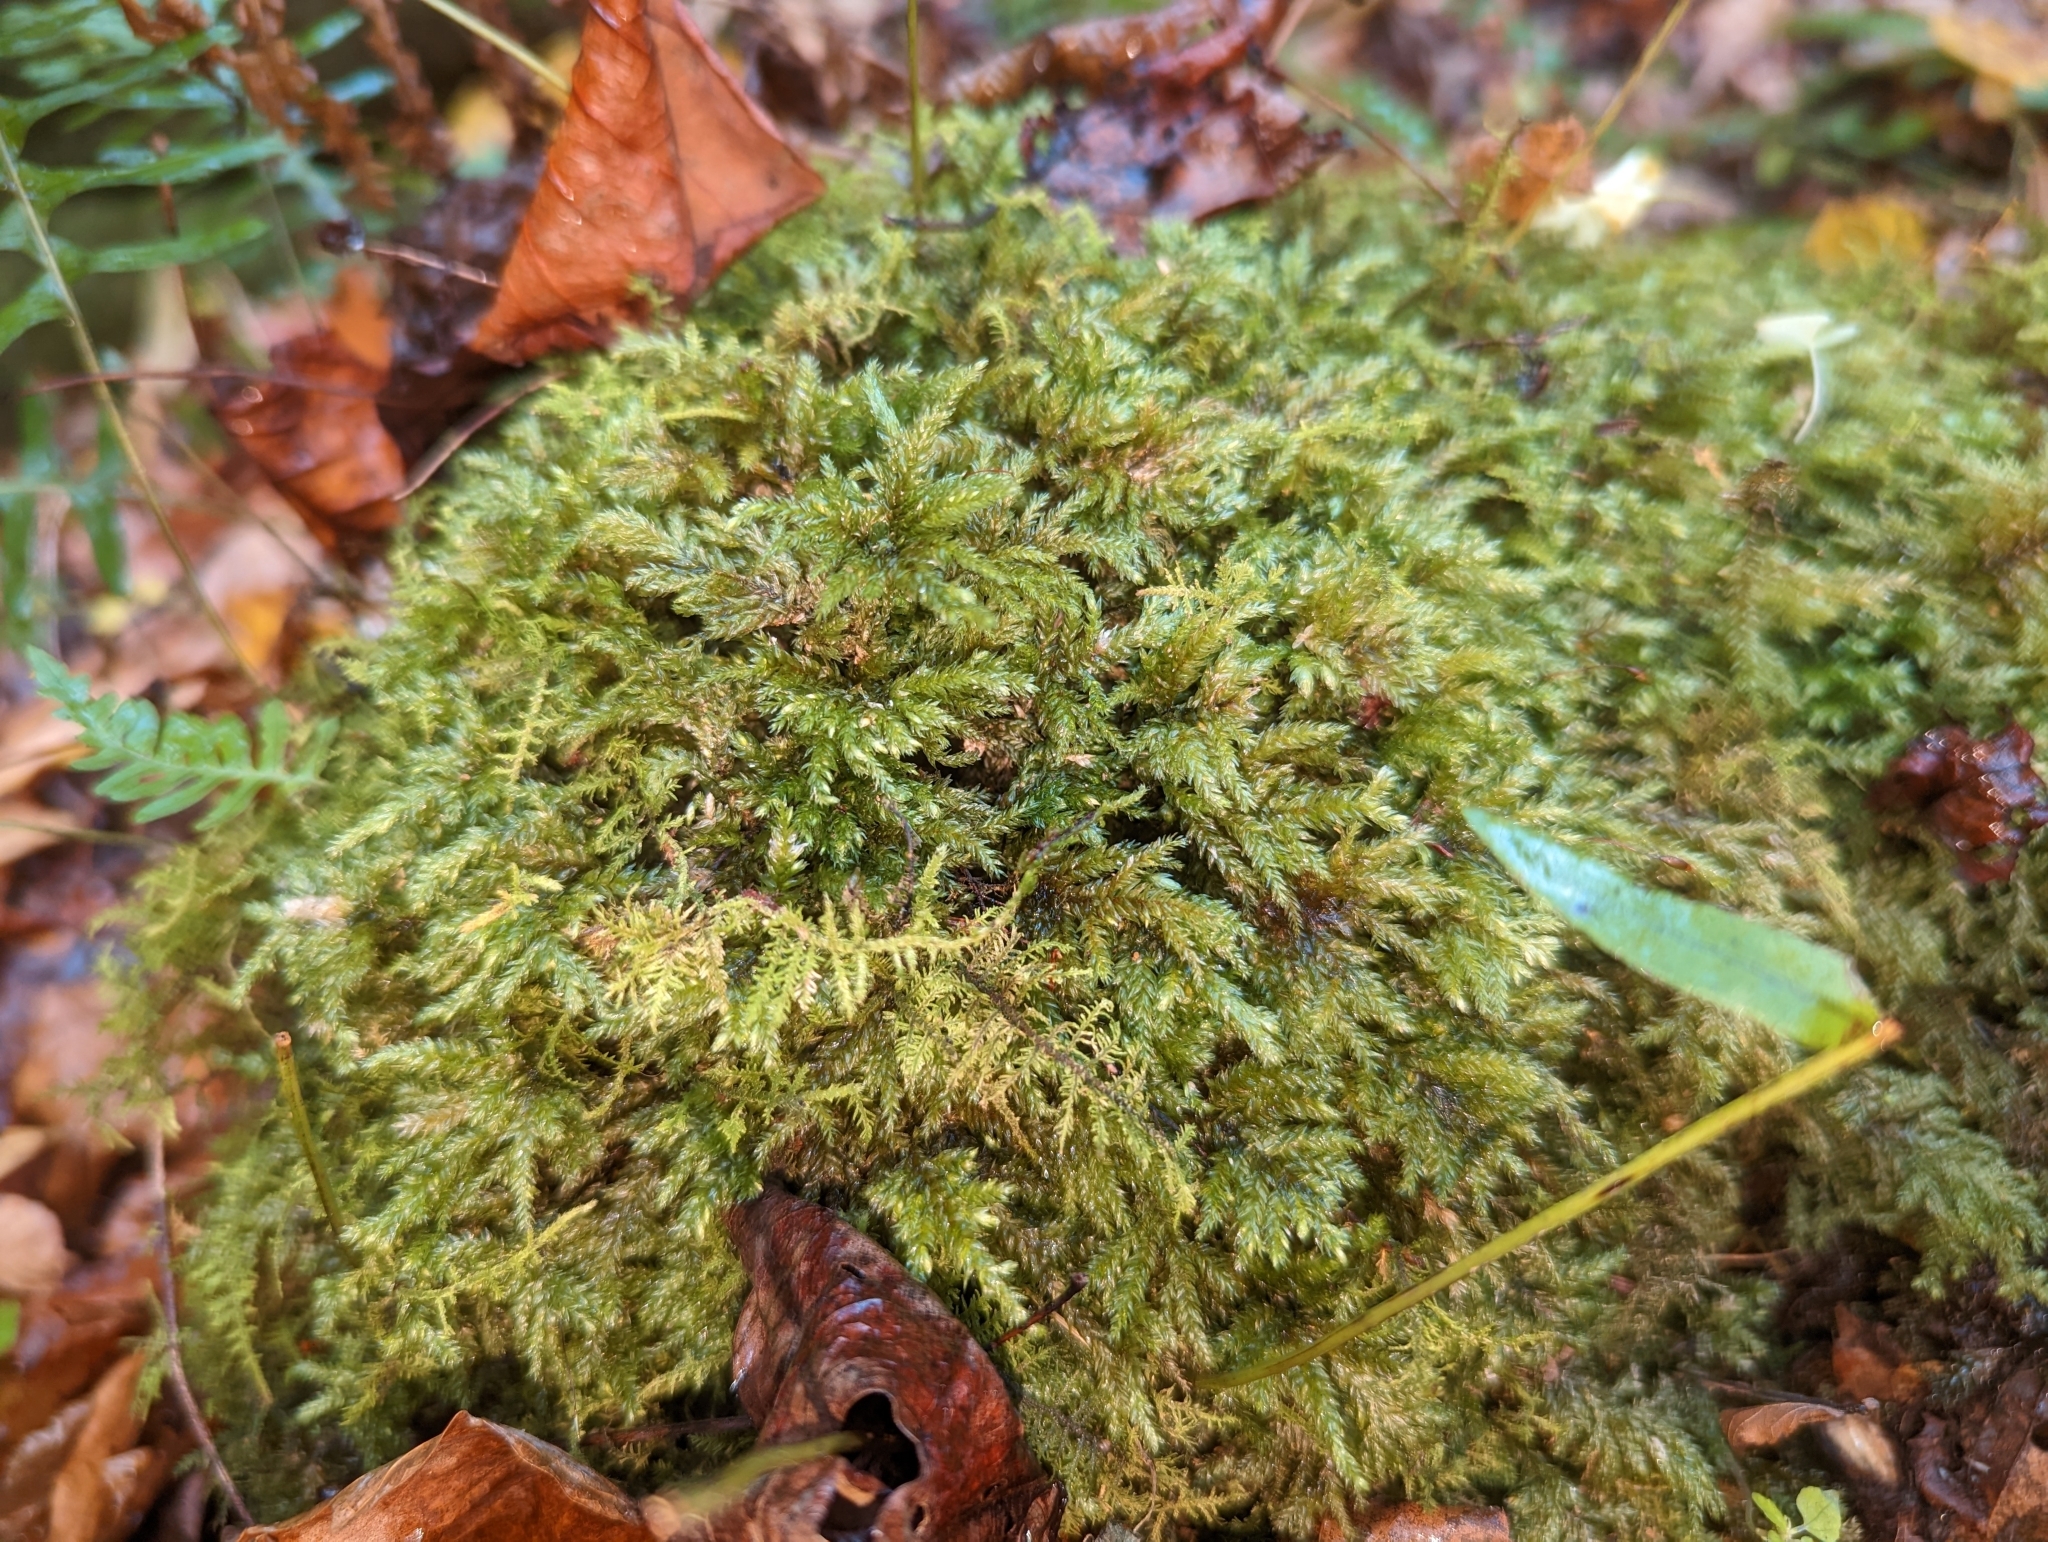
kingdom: Plantae
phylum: Bryophyta
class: Bryopsida
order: Hypnales
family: Neckeraceae
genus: Thamnobryum
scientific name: Thamnobryum subserratum
